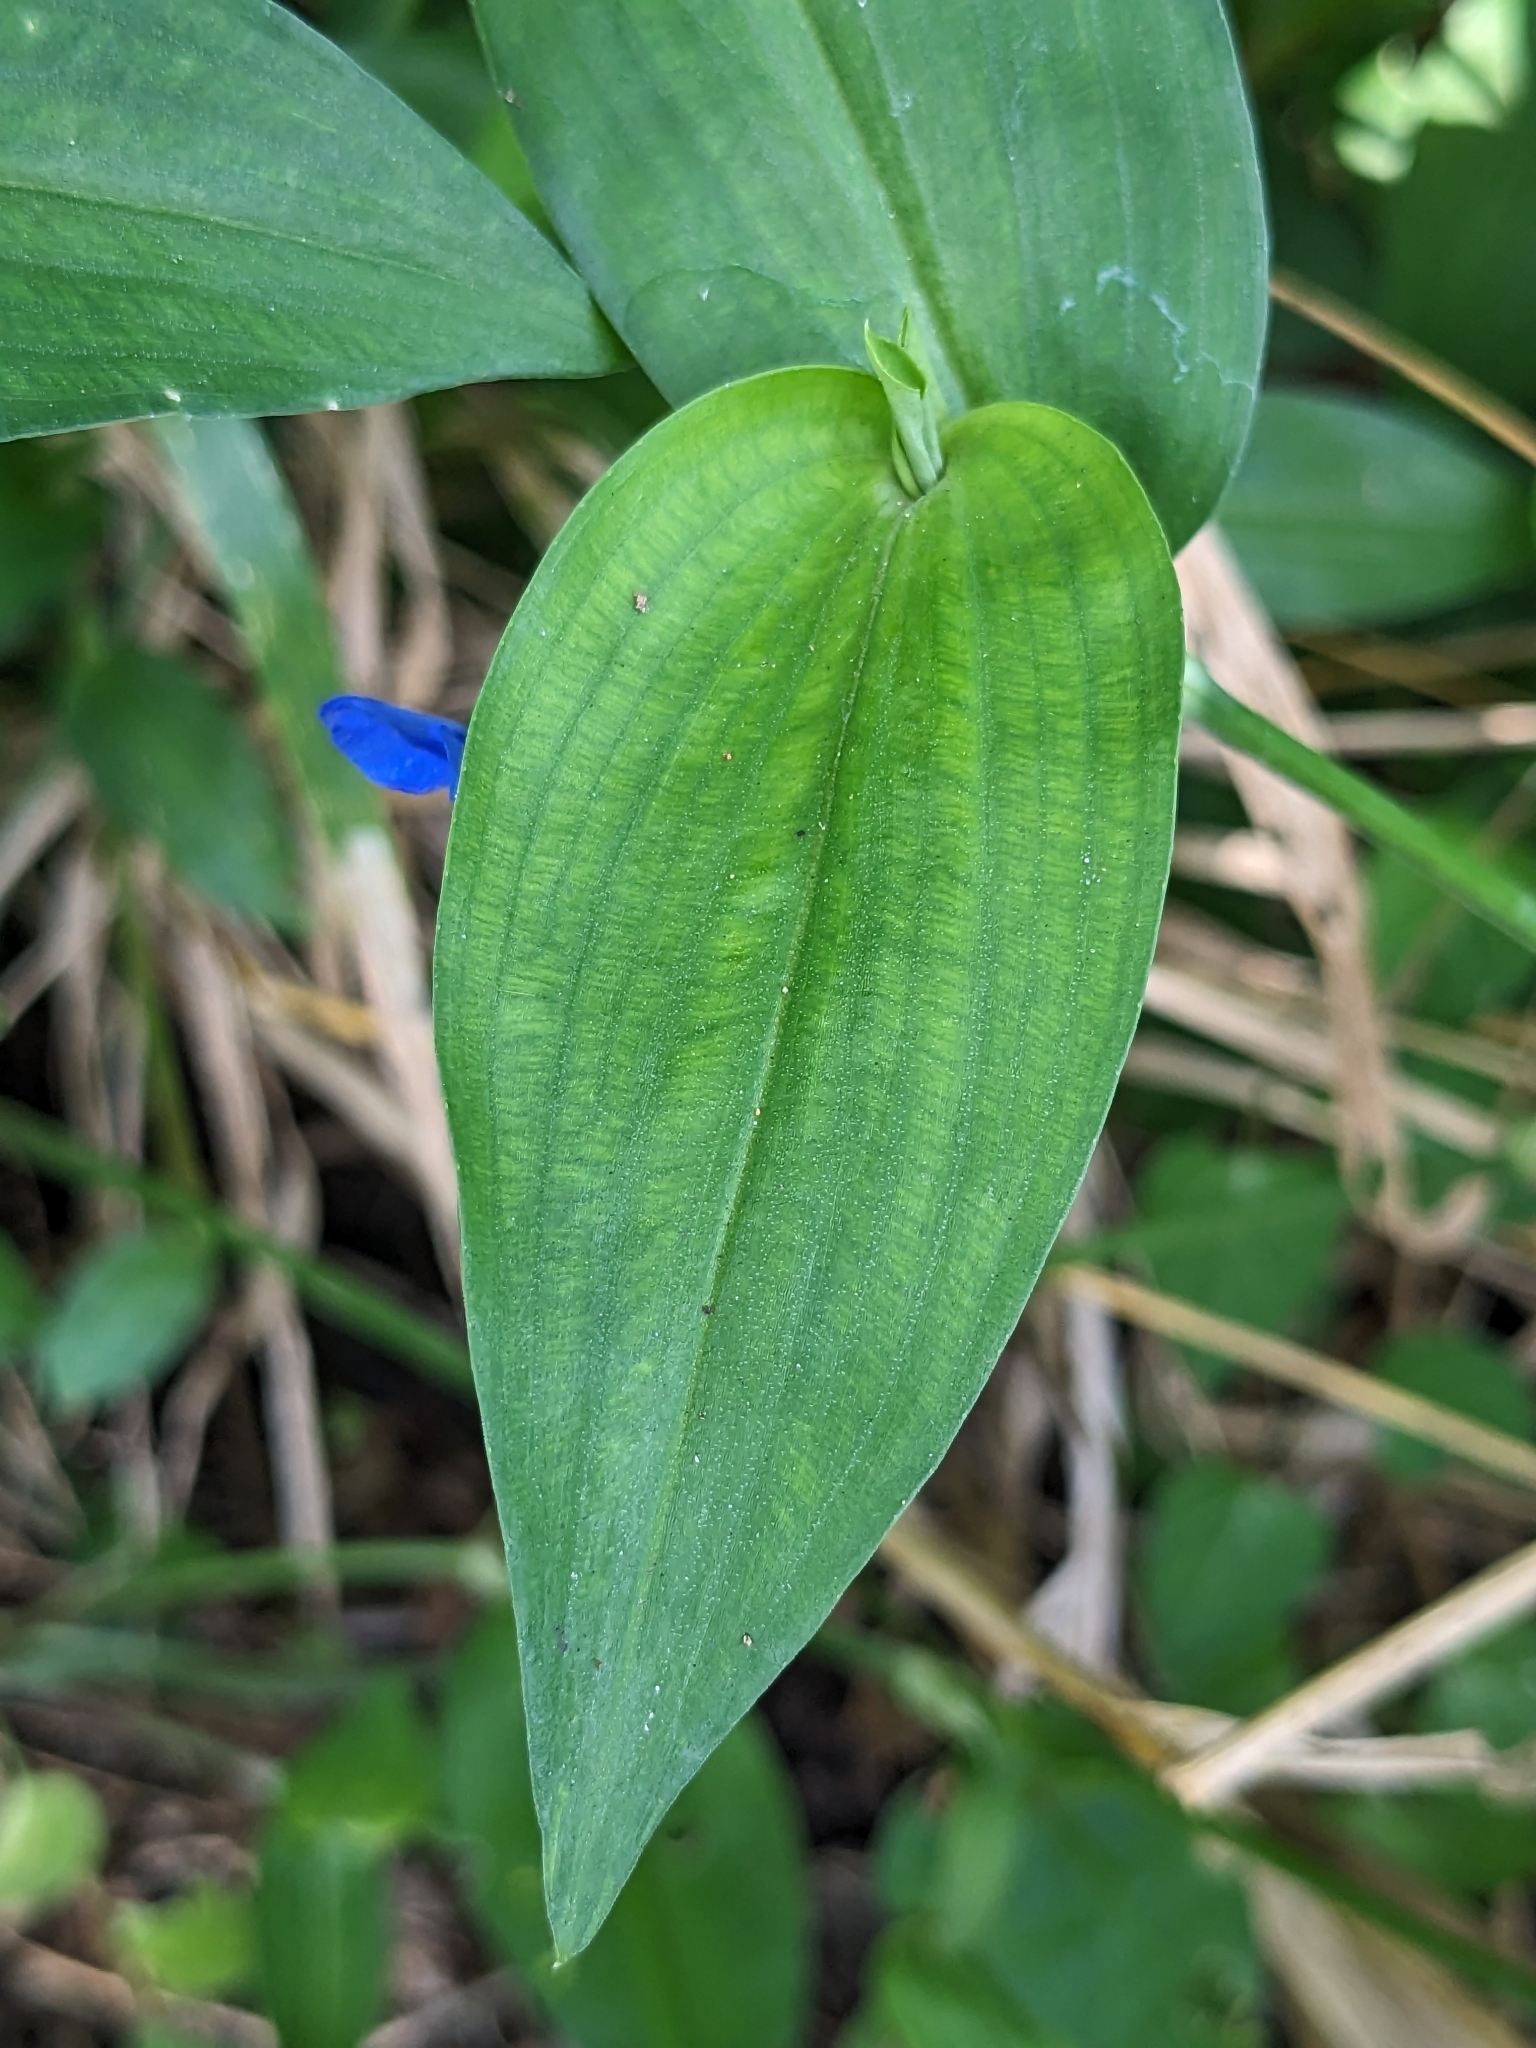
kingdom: Plantae
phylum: Tracheophyta
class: Liliopsida
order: Commelinales
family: Commelinaceae
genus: Commelina
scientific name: Commelina communis
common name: Asiatic dayflower
